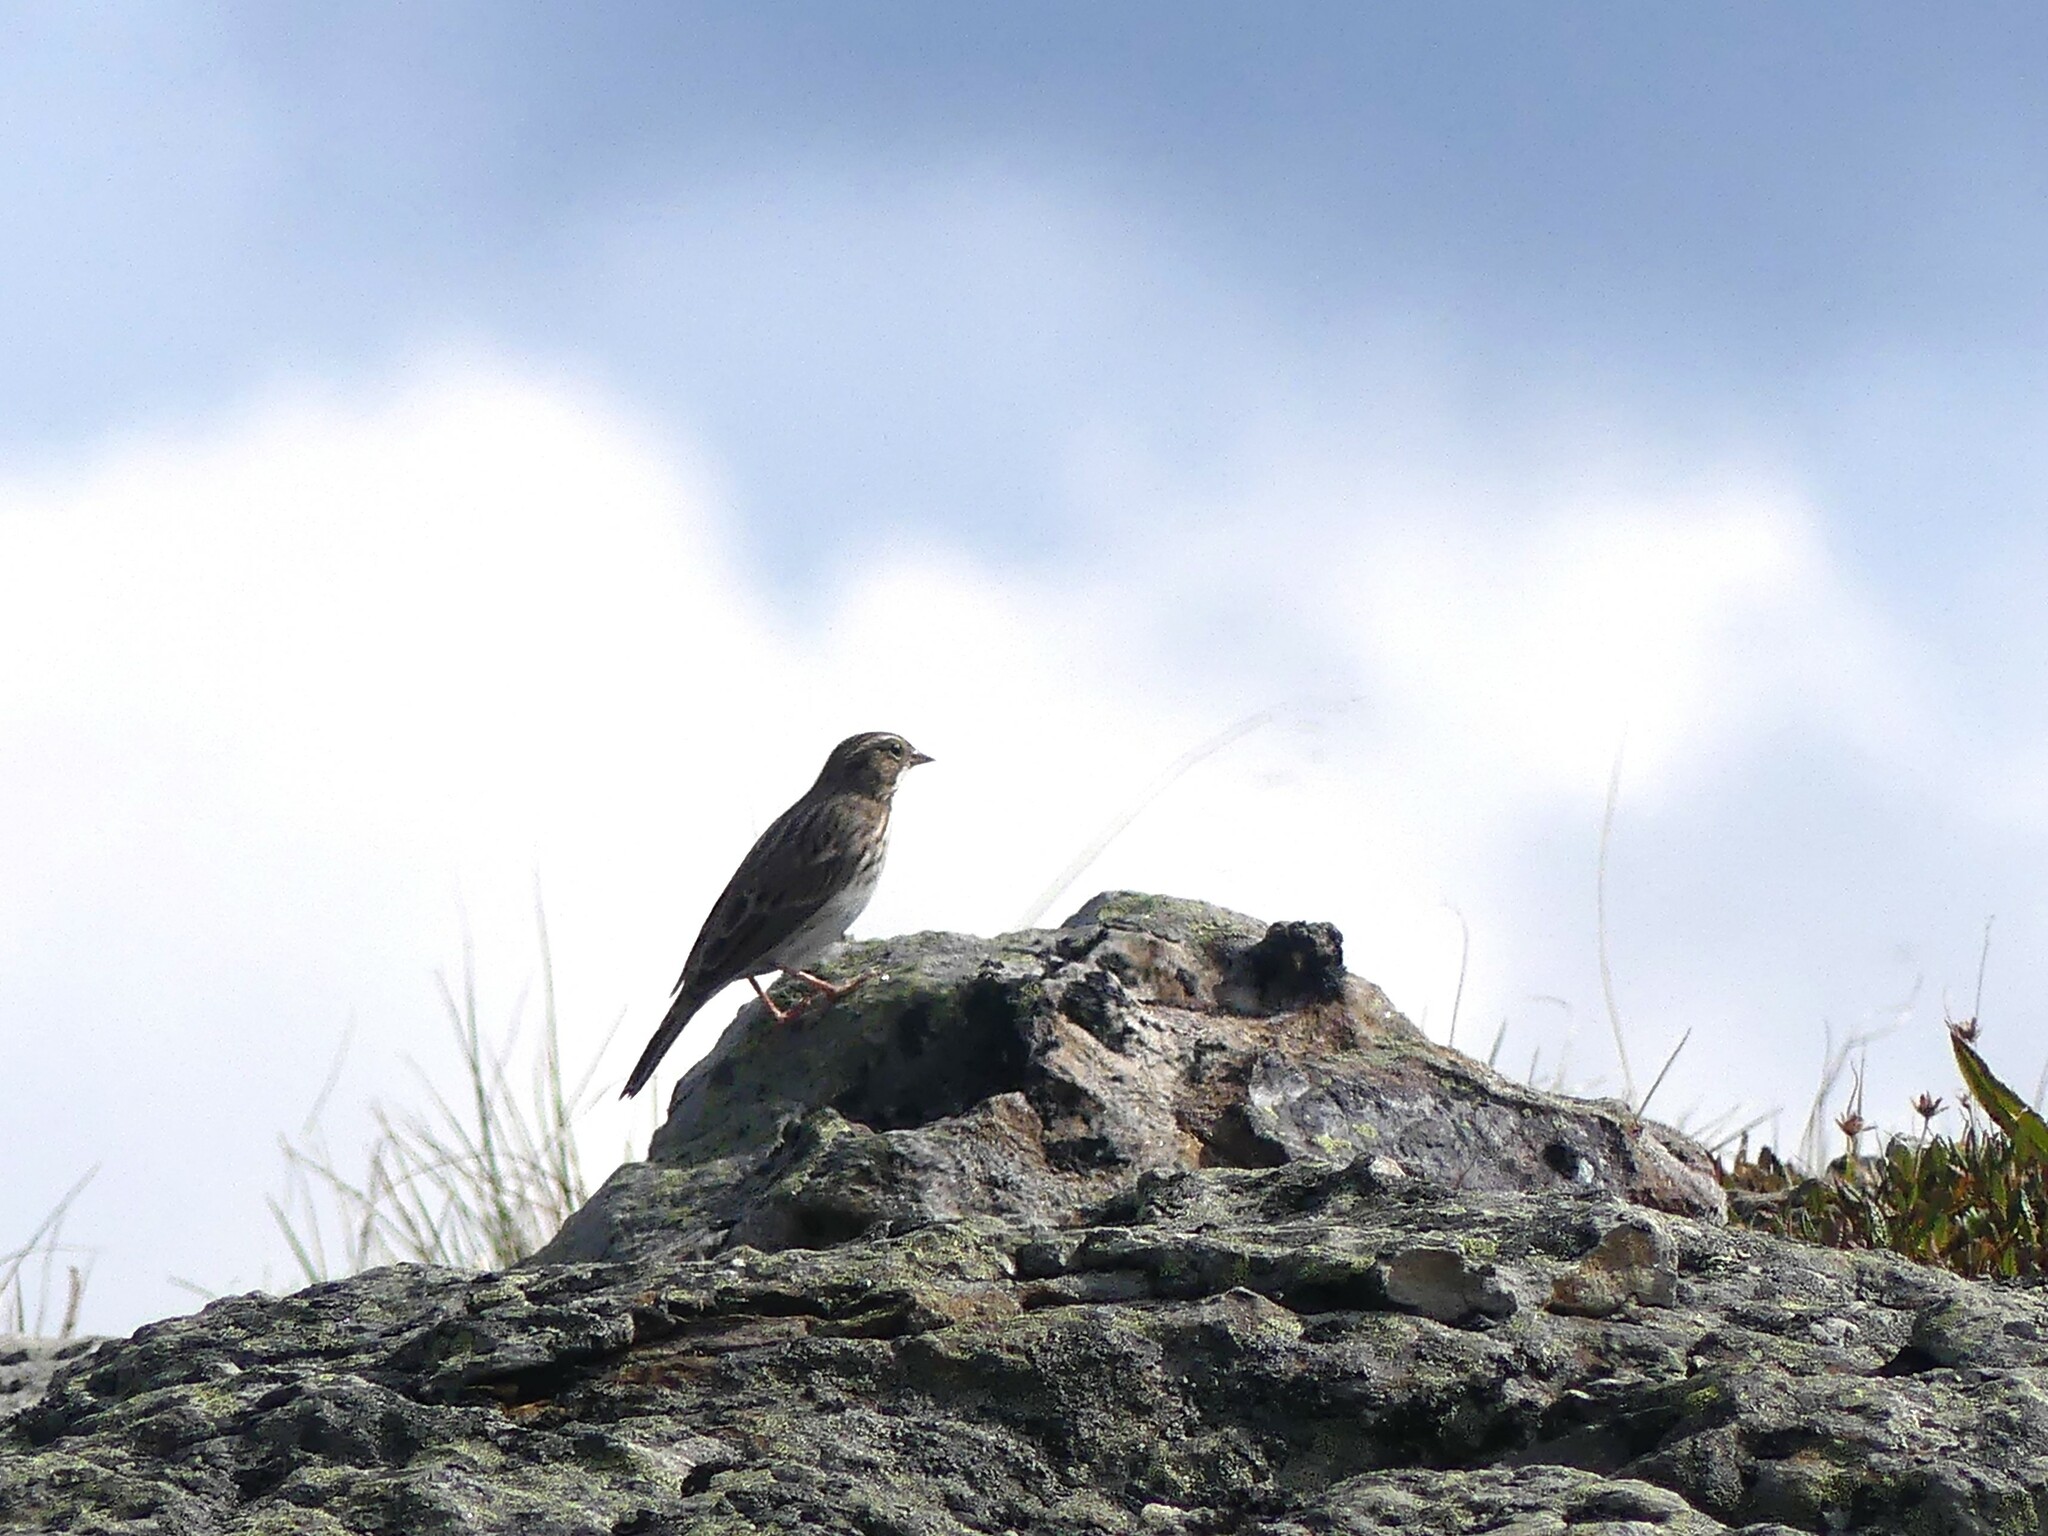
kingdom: Animalia
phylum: Chordata
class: Aves
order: Passeriformes
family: Passerellidae
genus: Passerculus
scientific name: Passerculus sandwichensis
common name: Savannah sparrow
